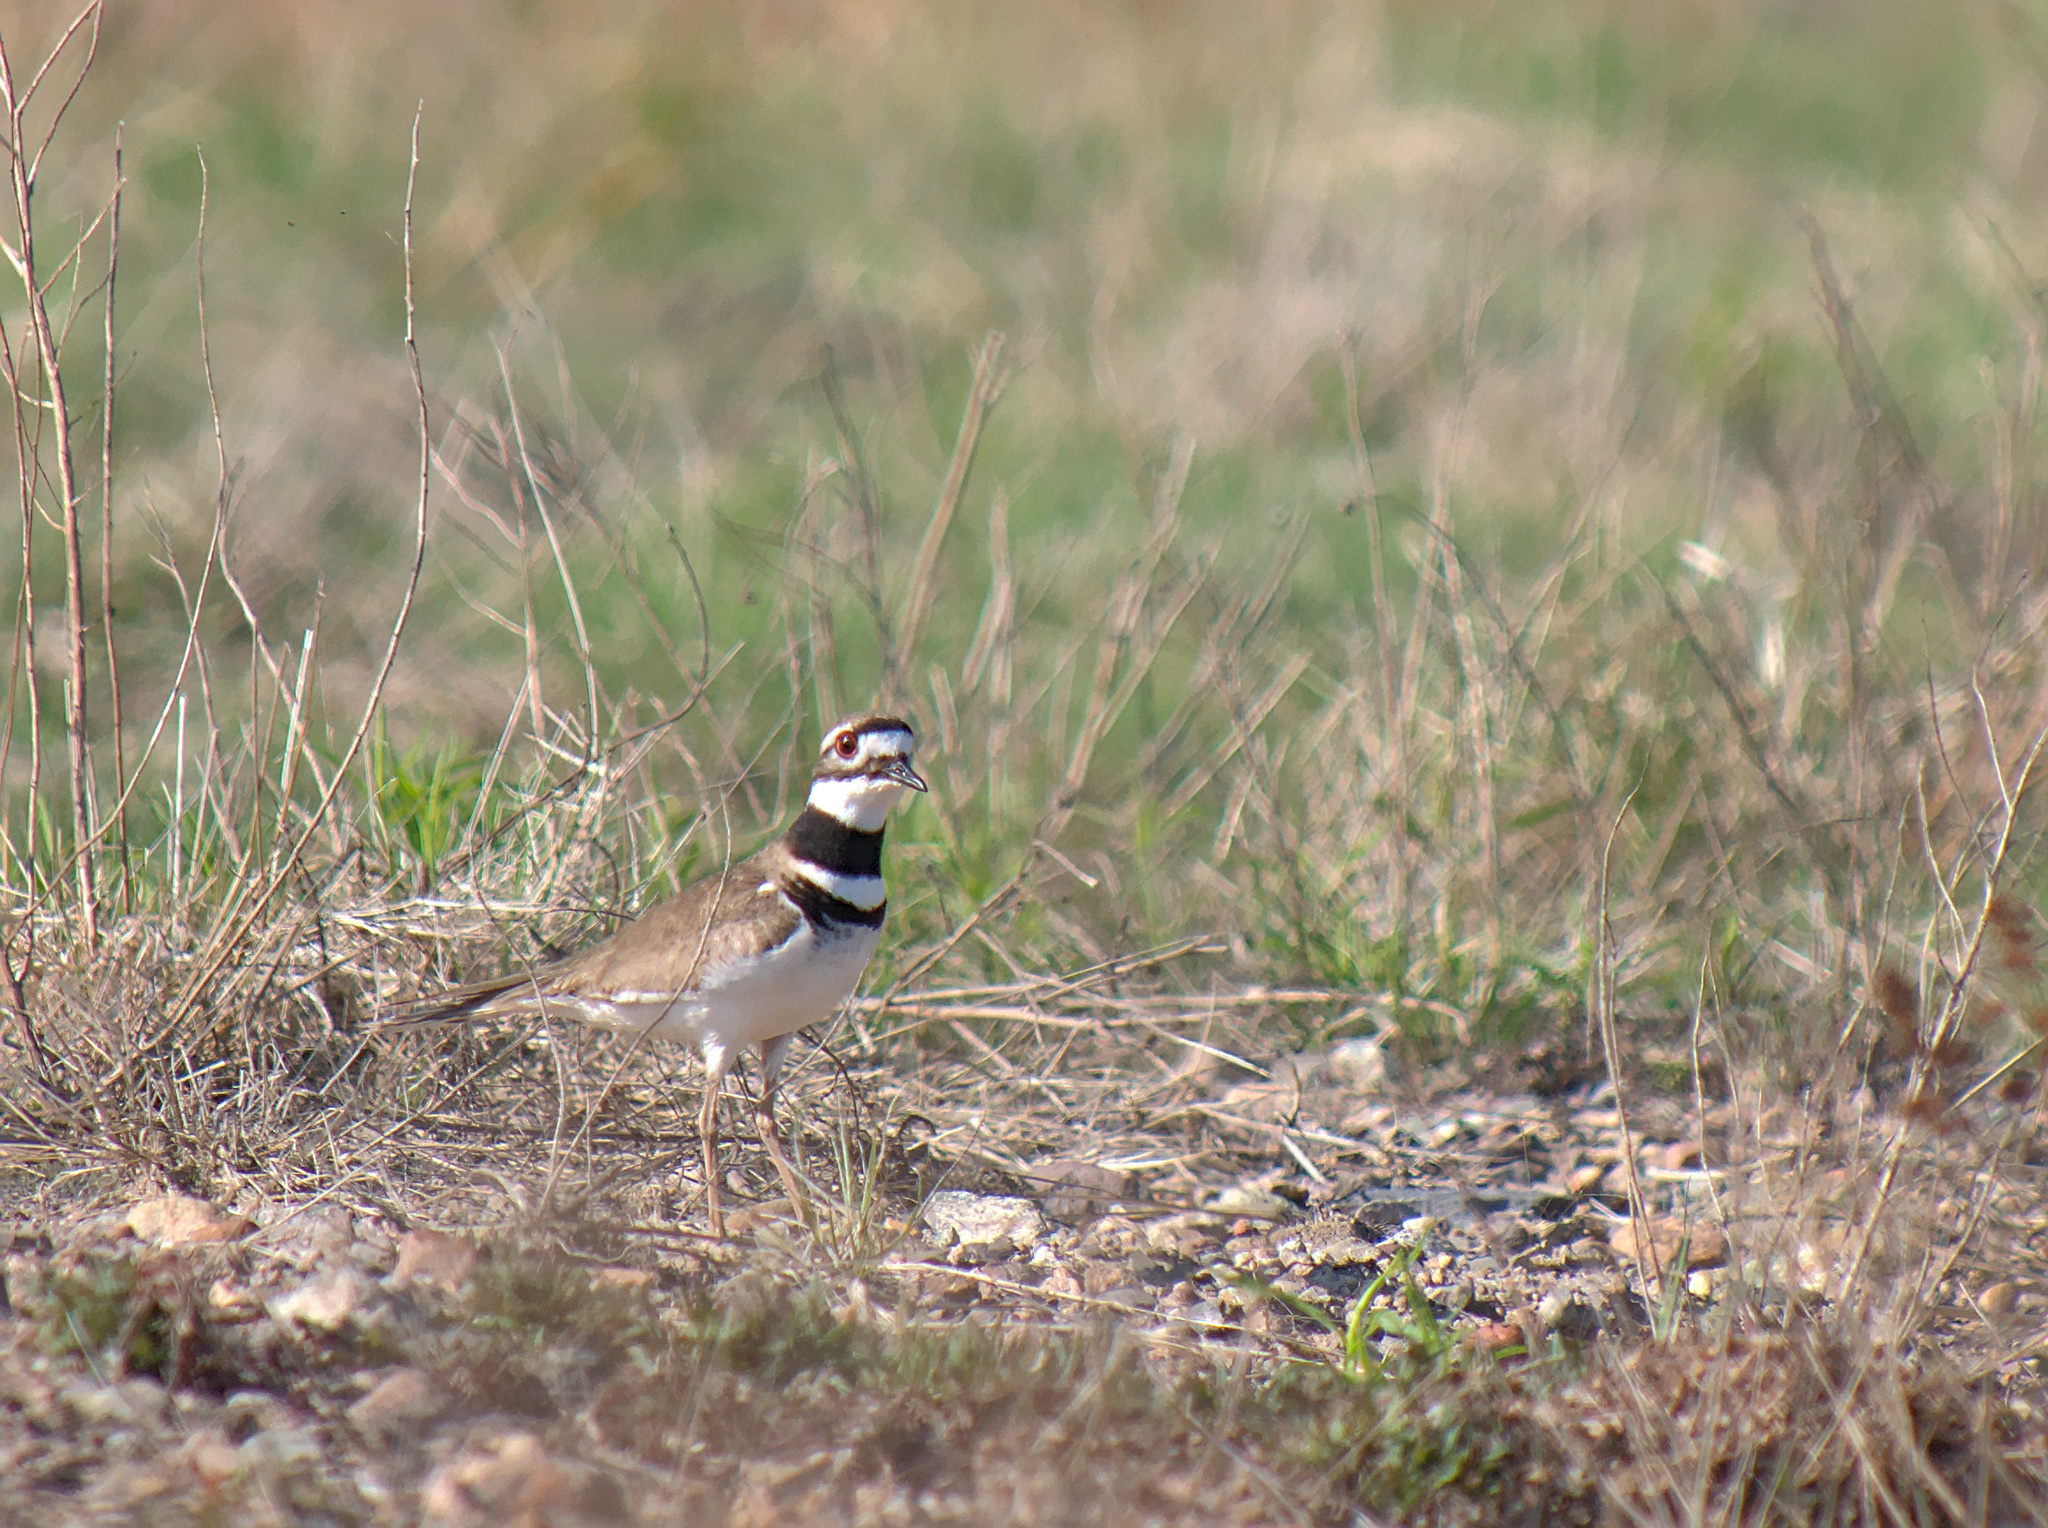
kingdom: Animalia
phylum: Chordata
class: Aves
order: Charadriiformes
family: Charadriidae
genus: Charadrius
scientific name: Charadrius vociferus
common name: Killdeer
